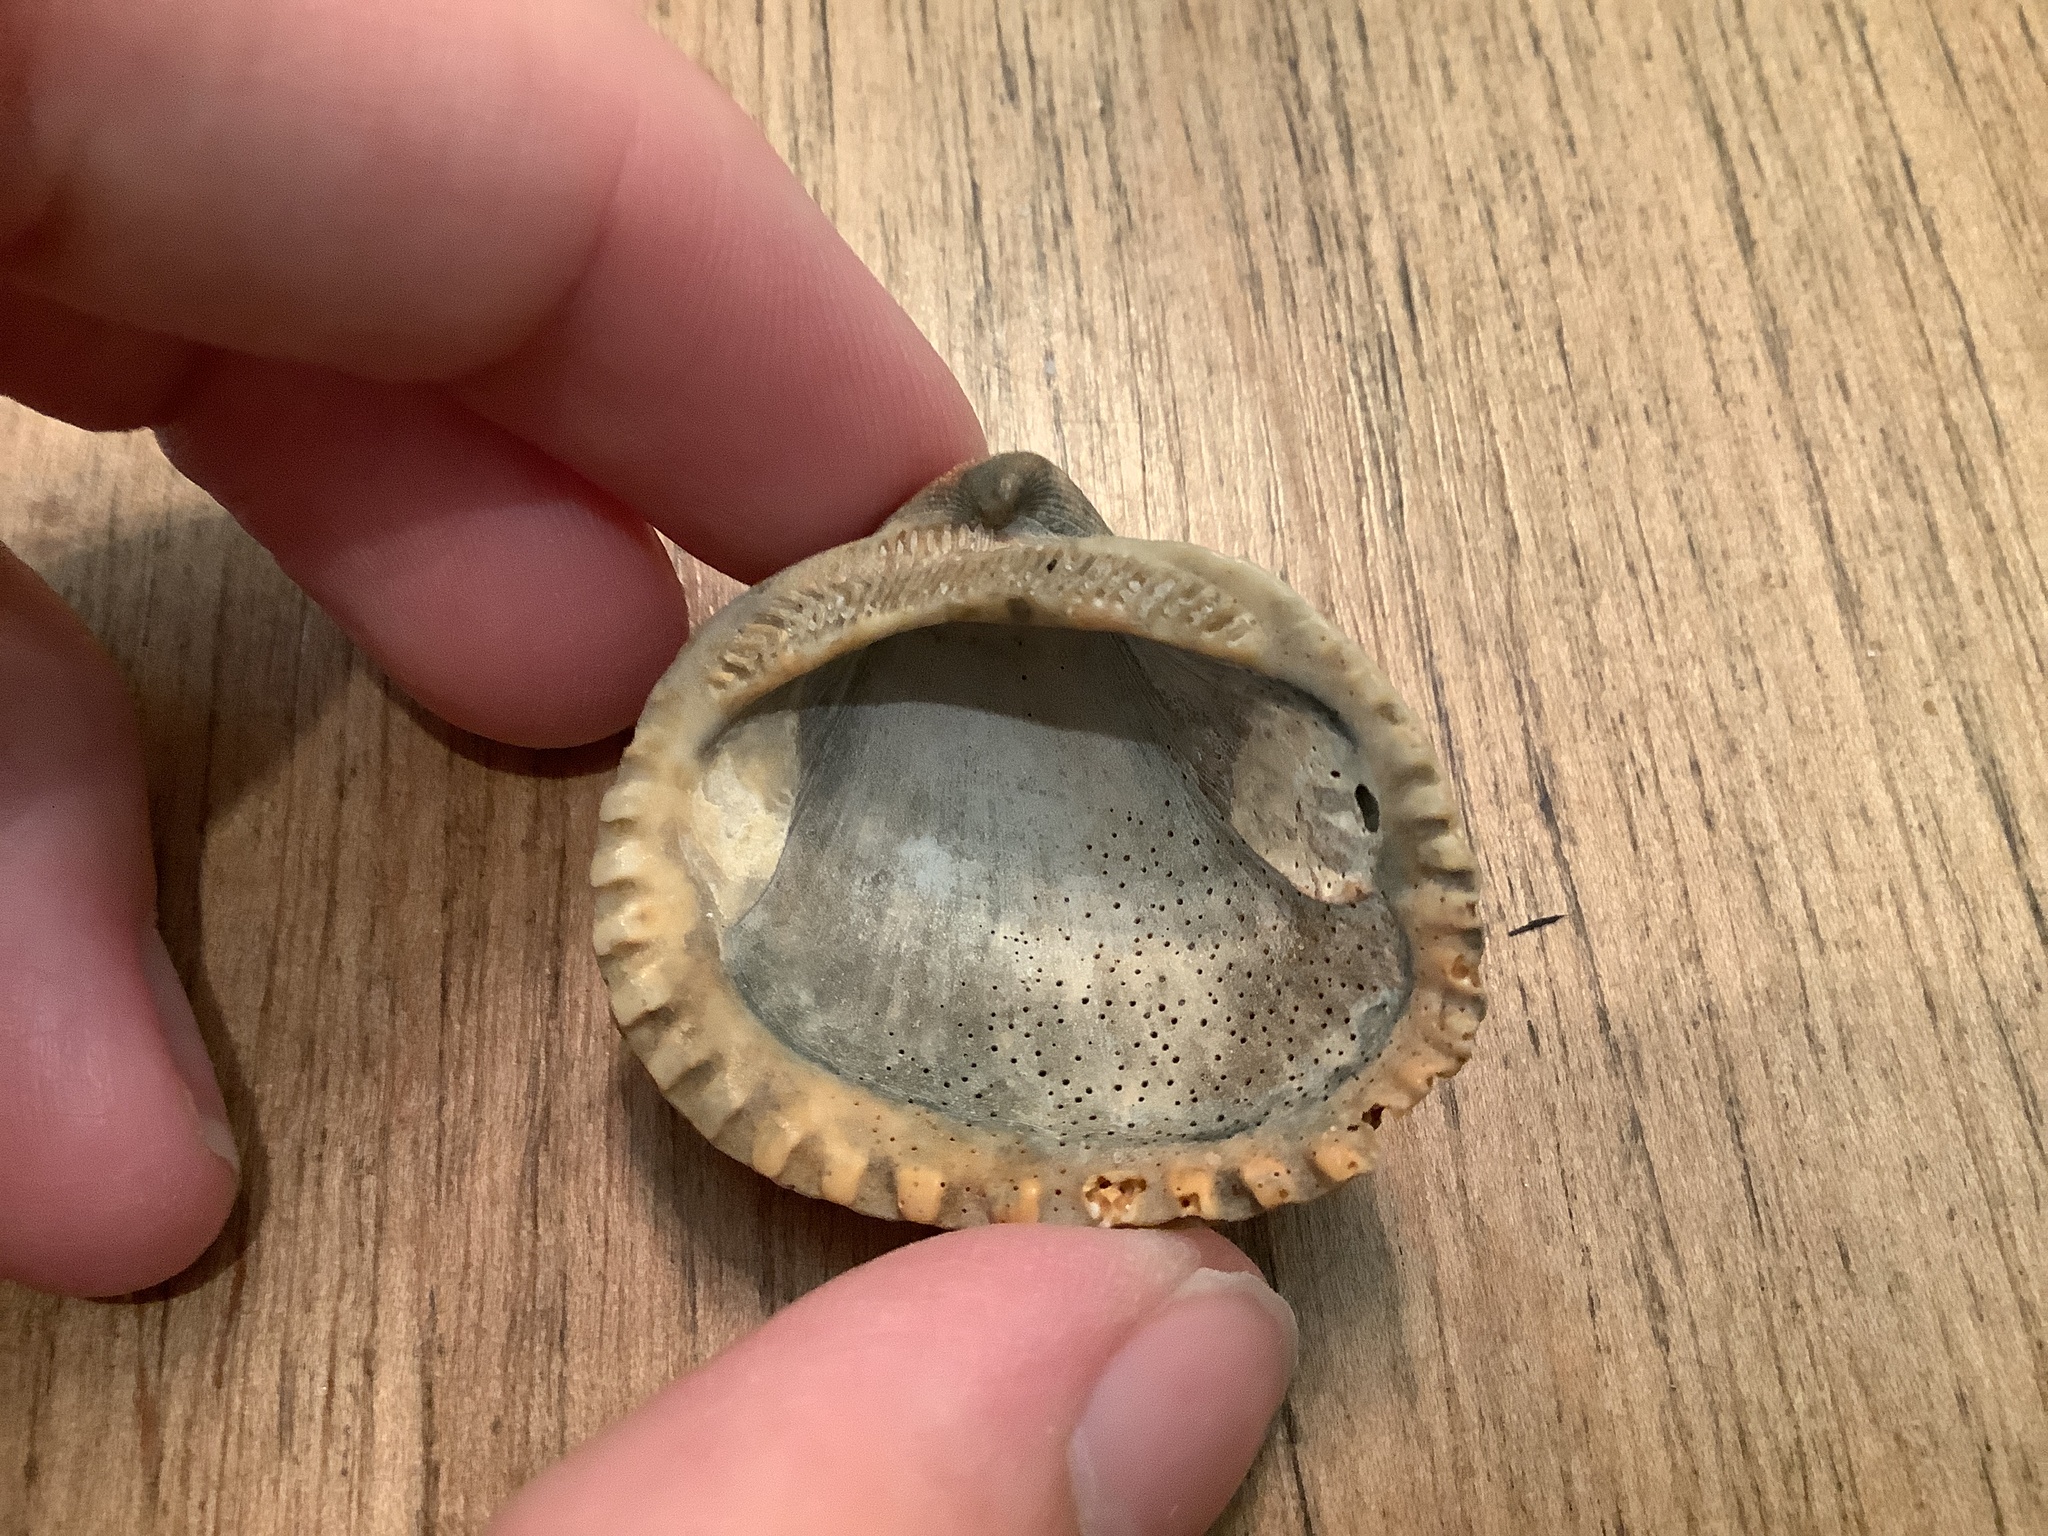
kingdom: Animalia
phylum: Mollusca
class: Bivalvia
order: Arcida
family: Noetiidae
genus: Noetia
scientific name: Noetia ponderosa
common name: Ponderous ark
